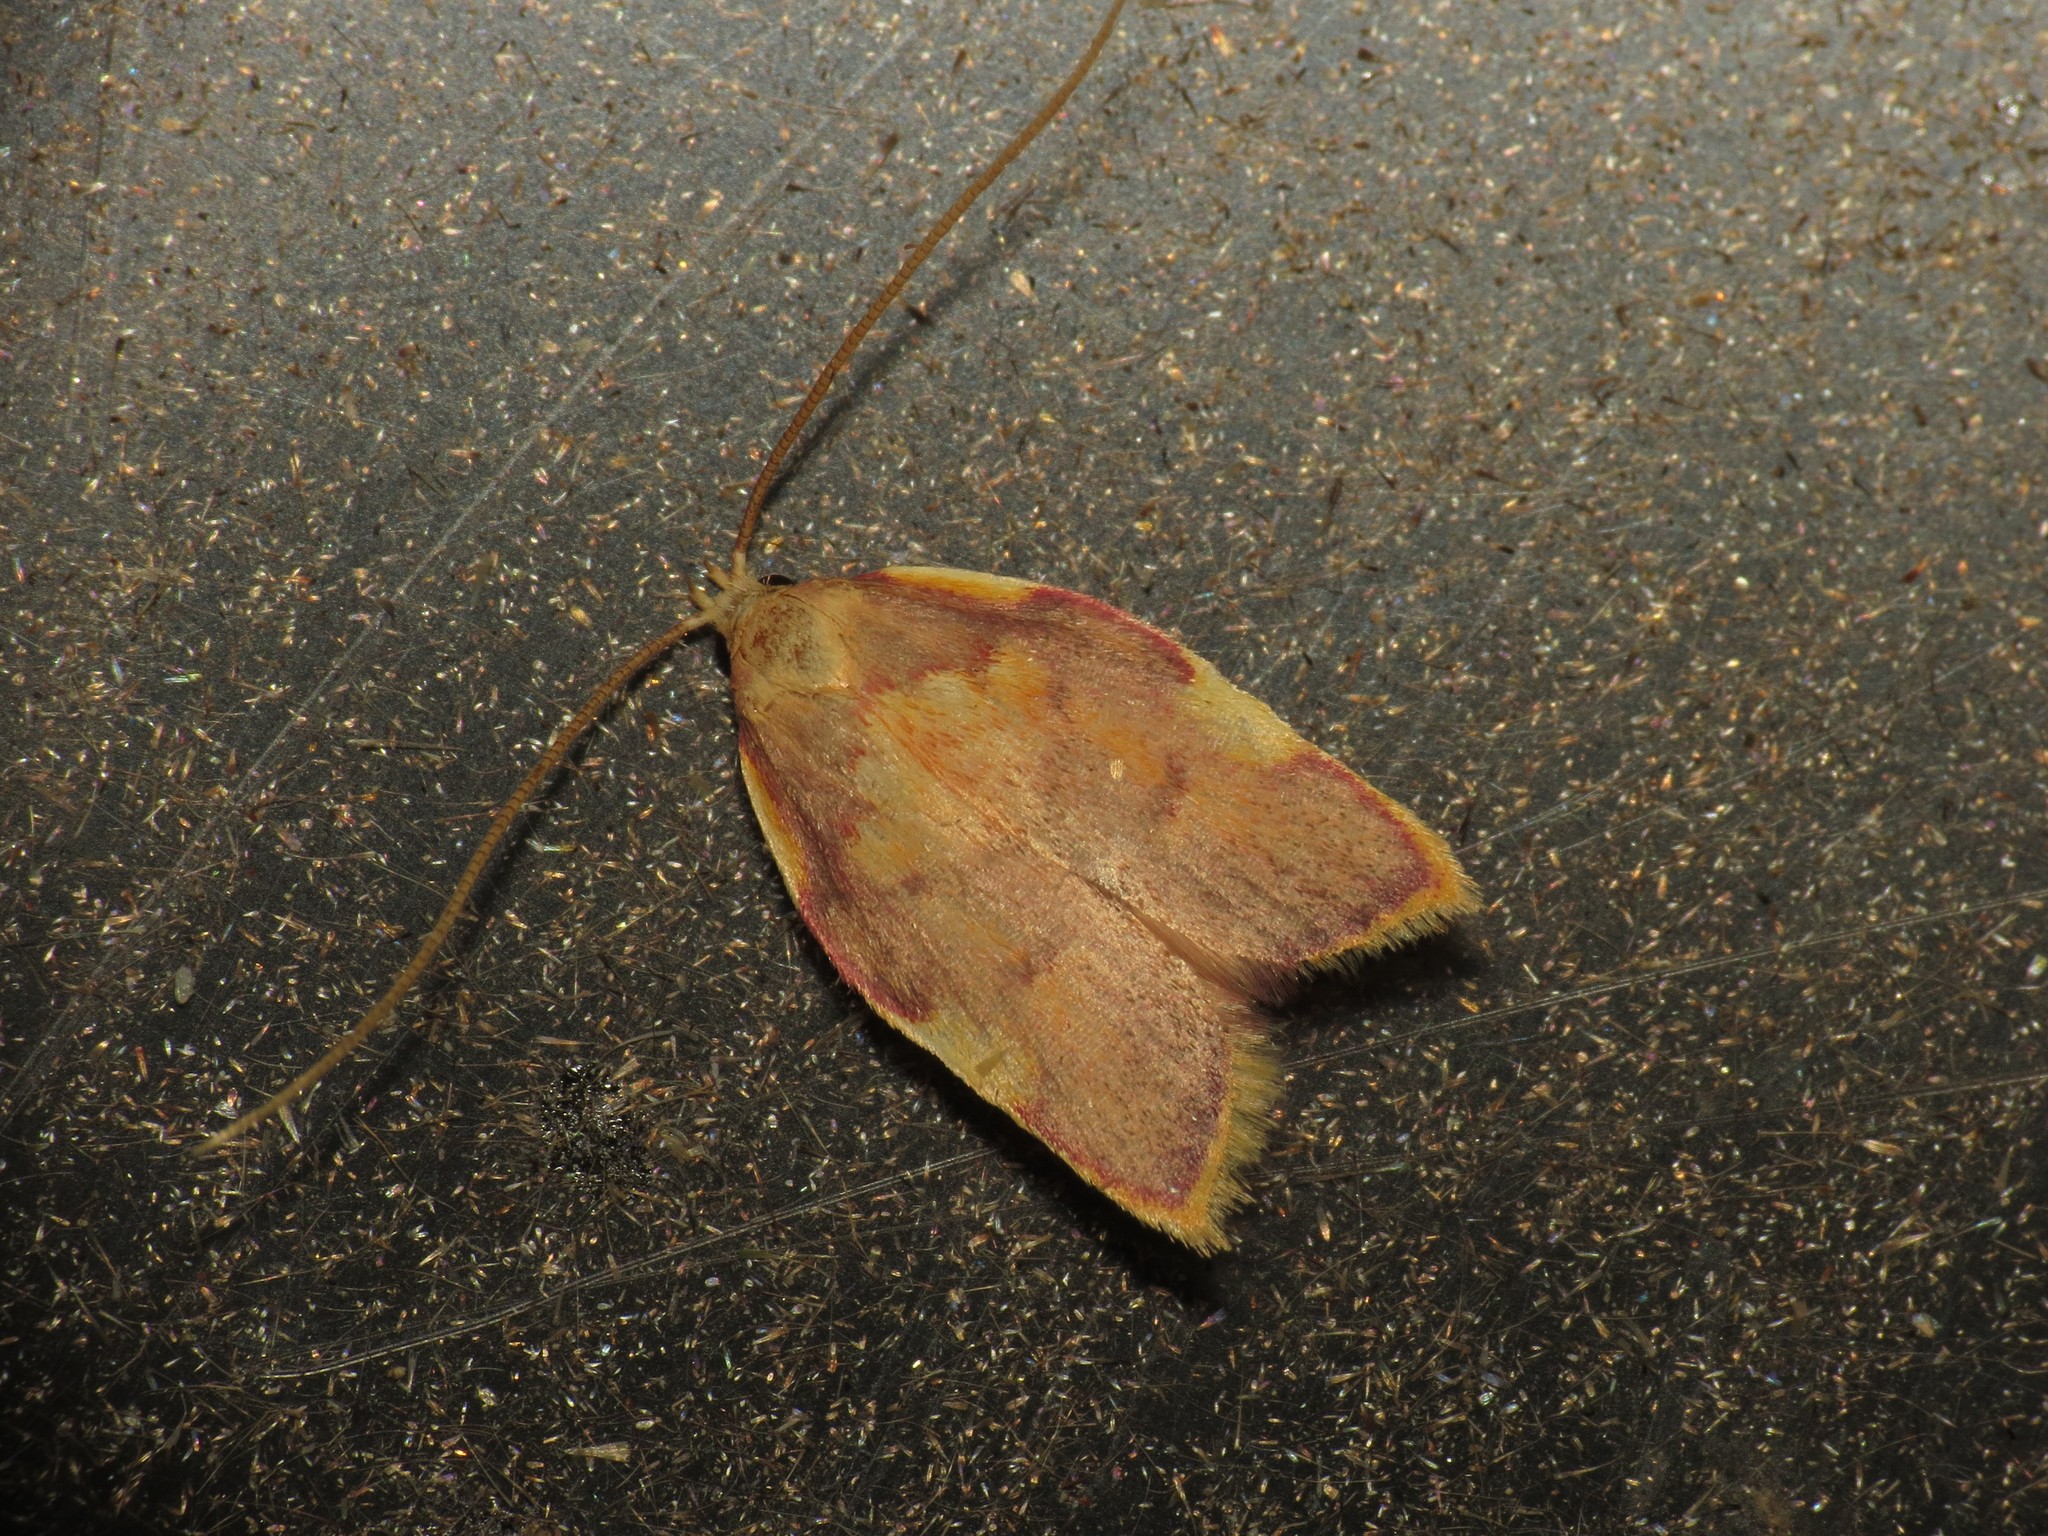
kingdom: Animalia
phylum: Arthropoda
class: Insecta
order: Lepidoptera
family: Peleopodidae
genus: Carcina
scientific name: Carcina quercana
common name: Moth
